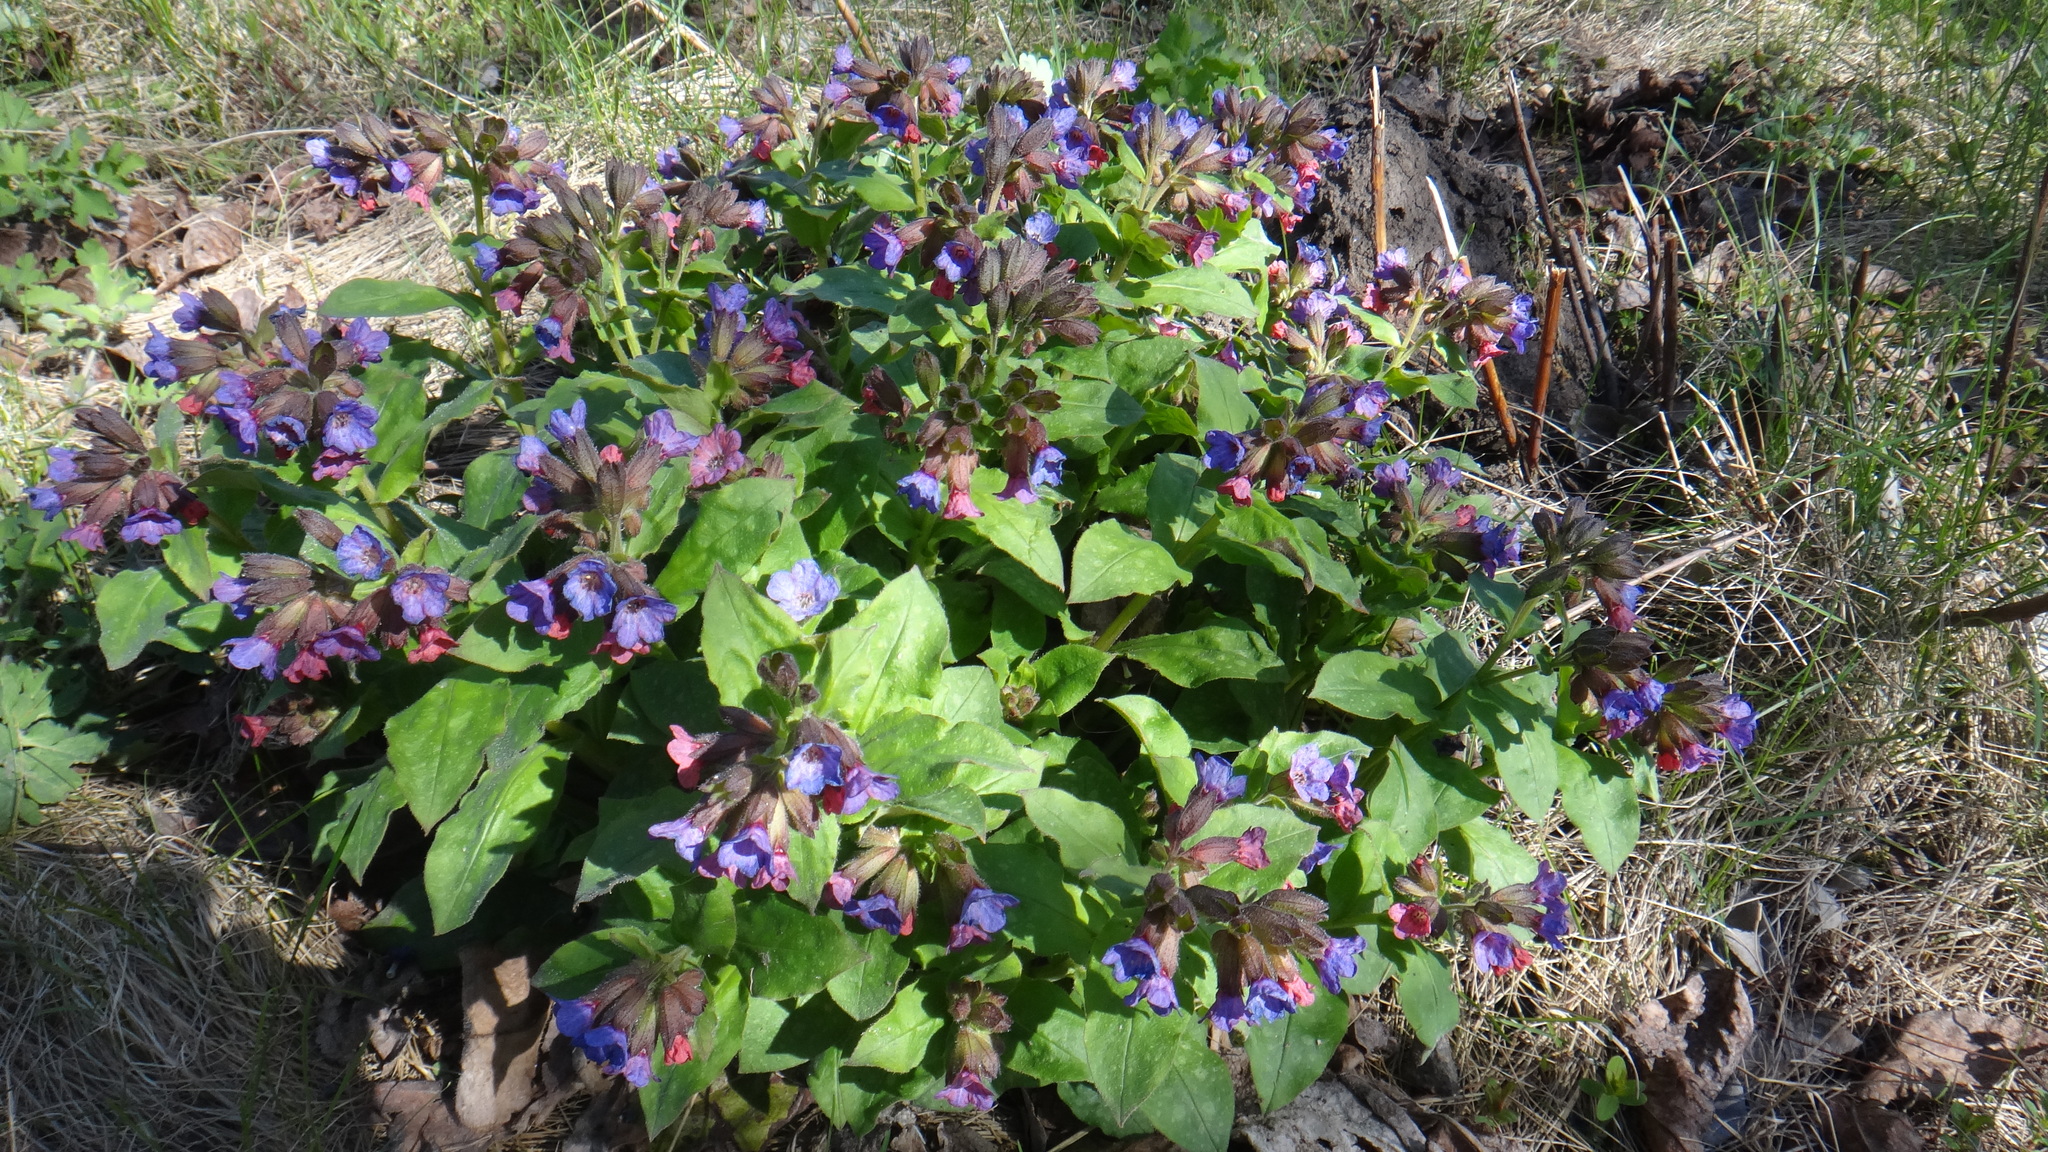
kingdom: Plantae
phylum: Tracheophyta
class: Magnoliopsida
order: Boraginales
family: Boraginaceae
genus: Pulmonaria
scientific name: Pulmonaria obscura
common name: Suffolk lungwort
